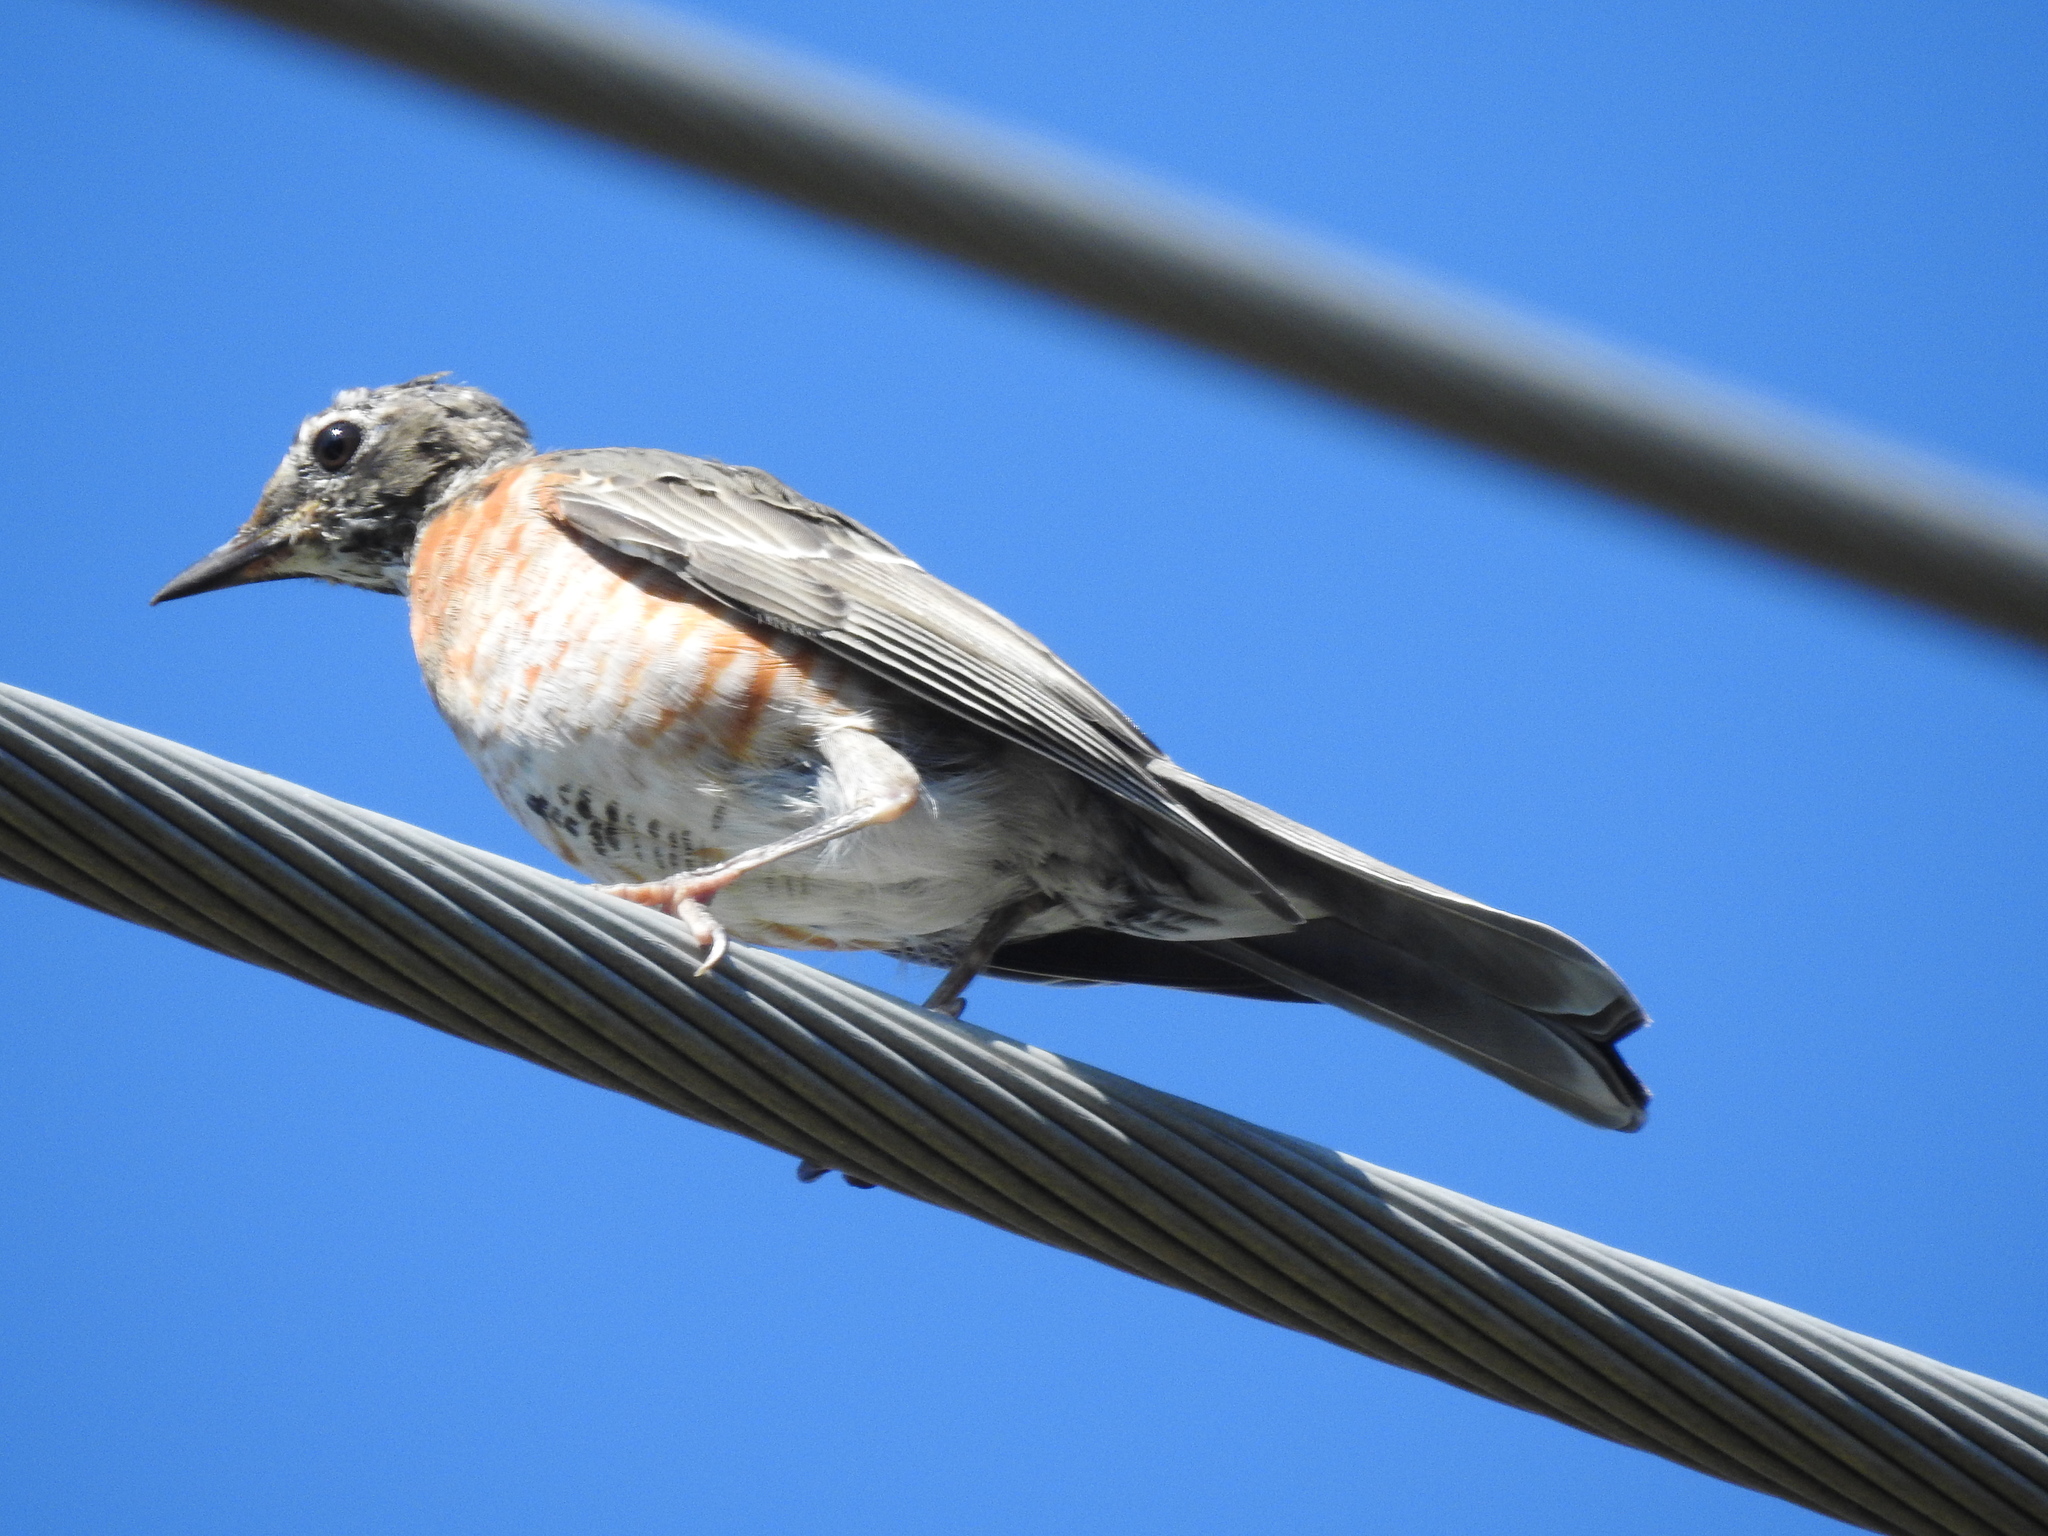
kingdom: Animalia
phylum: Chordata
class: Aves
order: Passeriformes
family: Turdidae
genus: Turdus
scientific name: Turdus migratorius
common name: American robin
